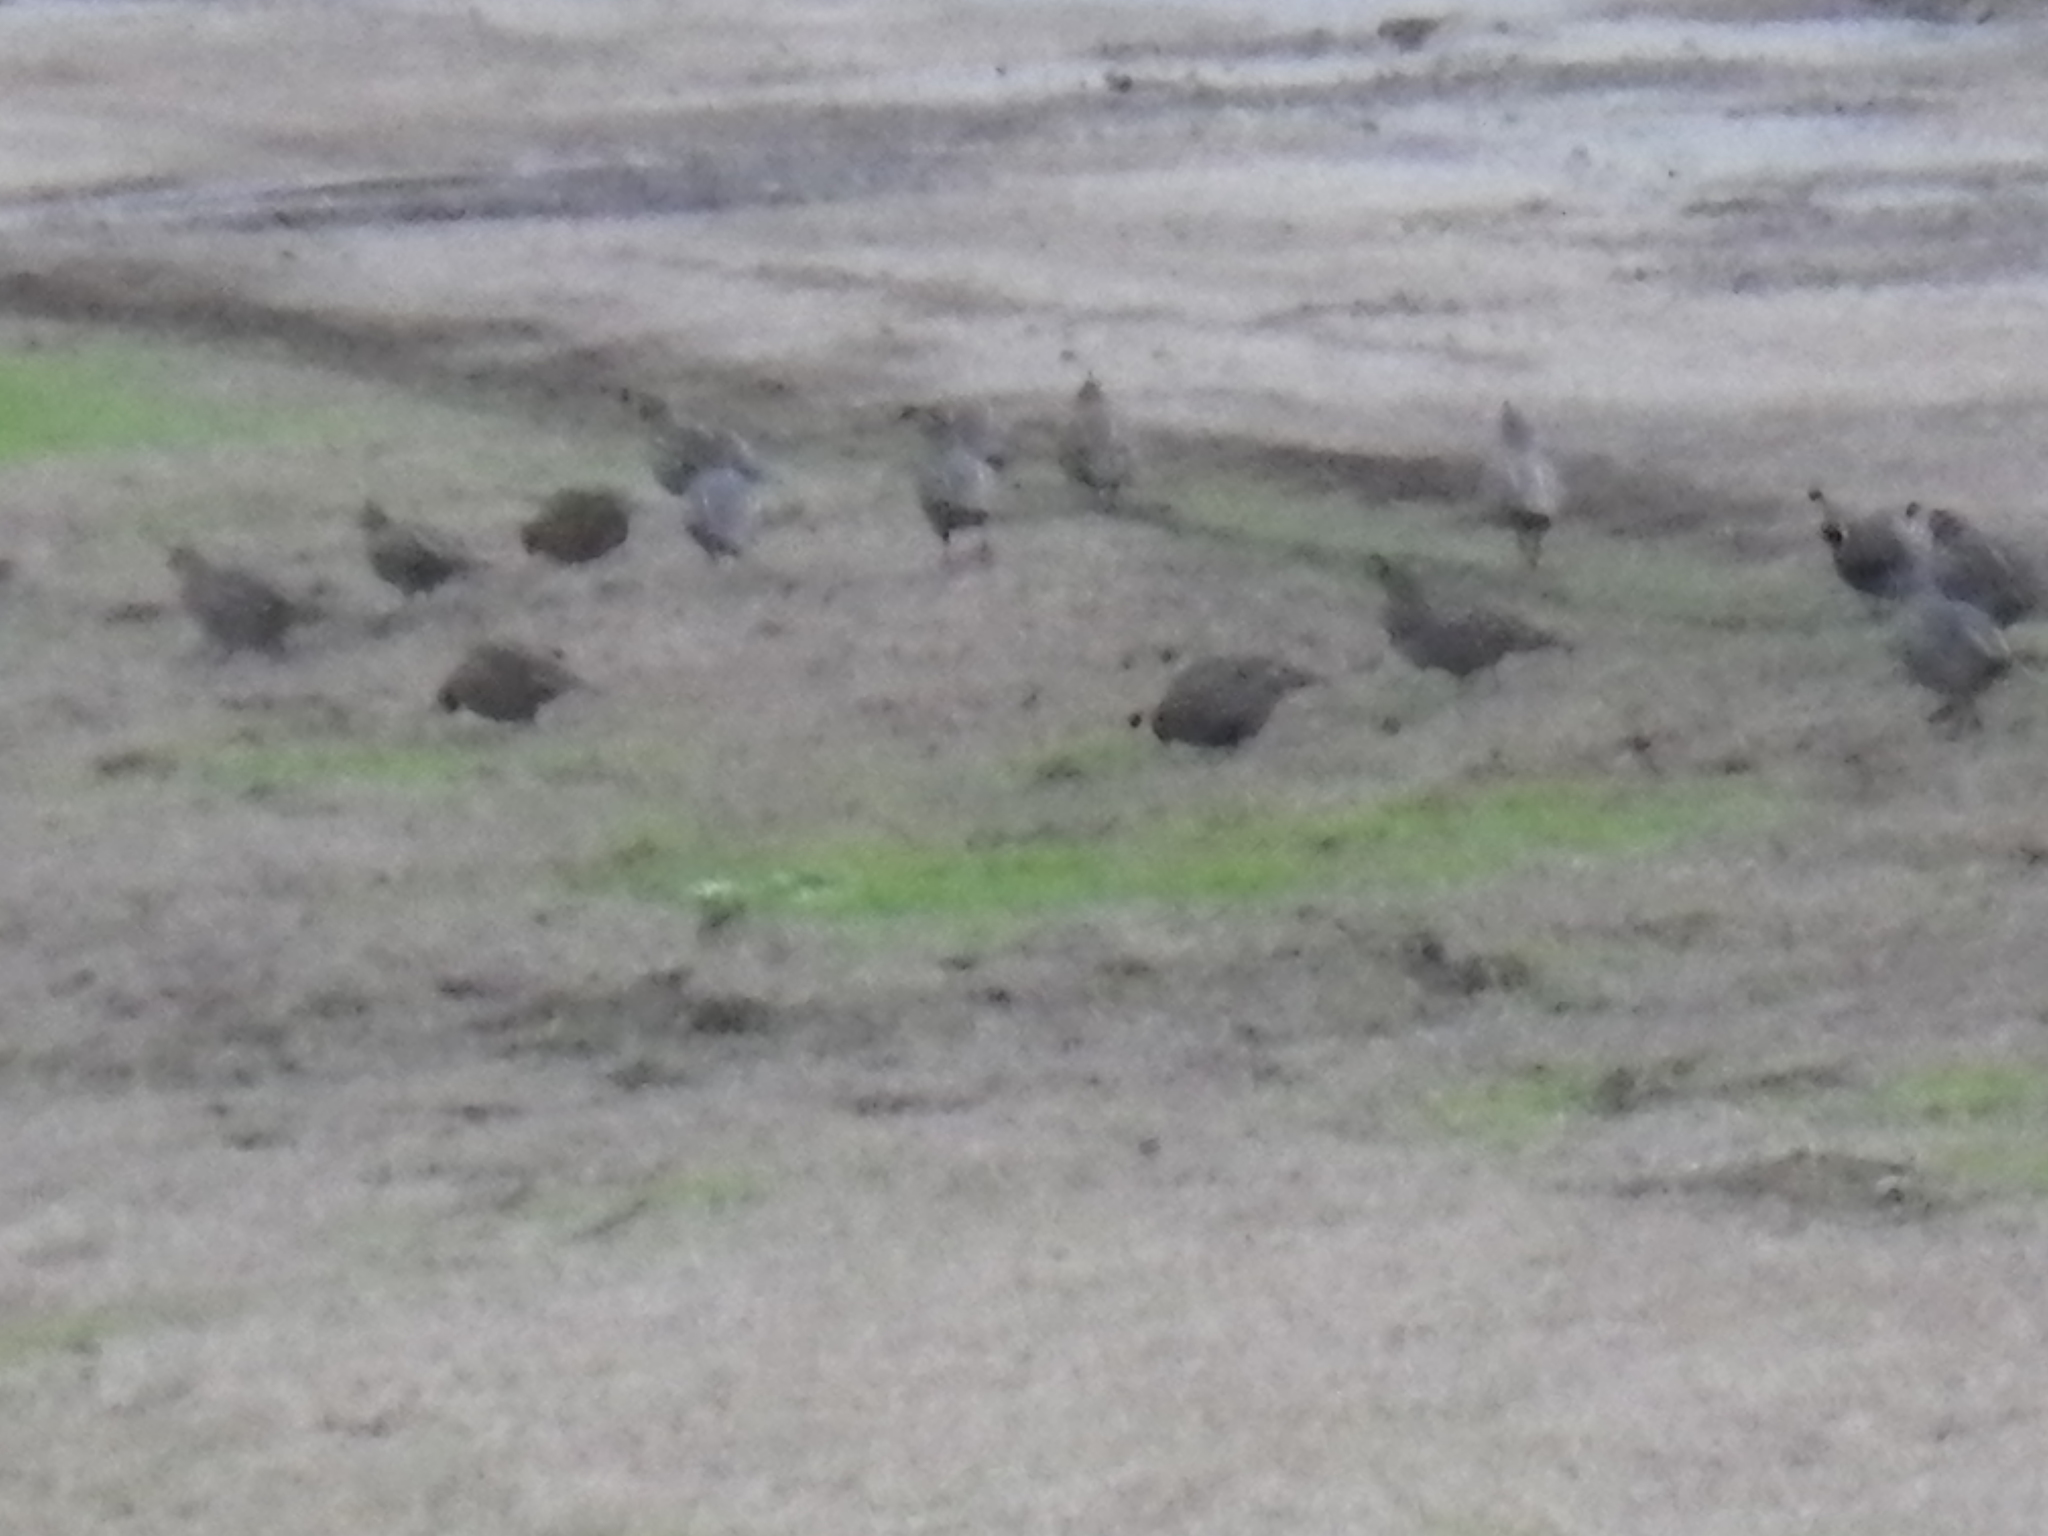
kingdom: Animalia
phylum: Chordata
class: Aves
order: Galliformes
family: Odontophoridae
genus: Callipepla
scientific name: Callipepla californica
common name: California quail
